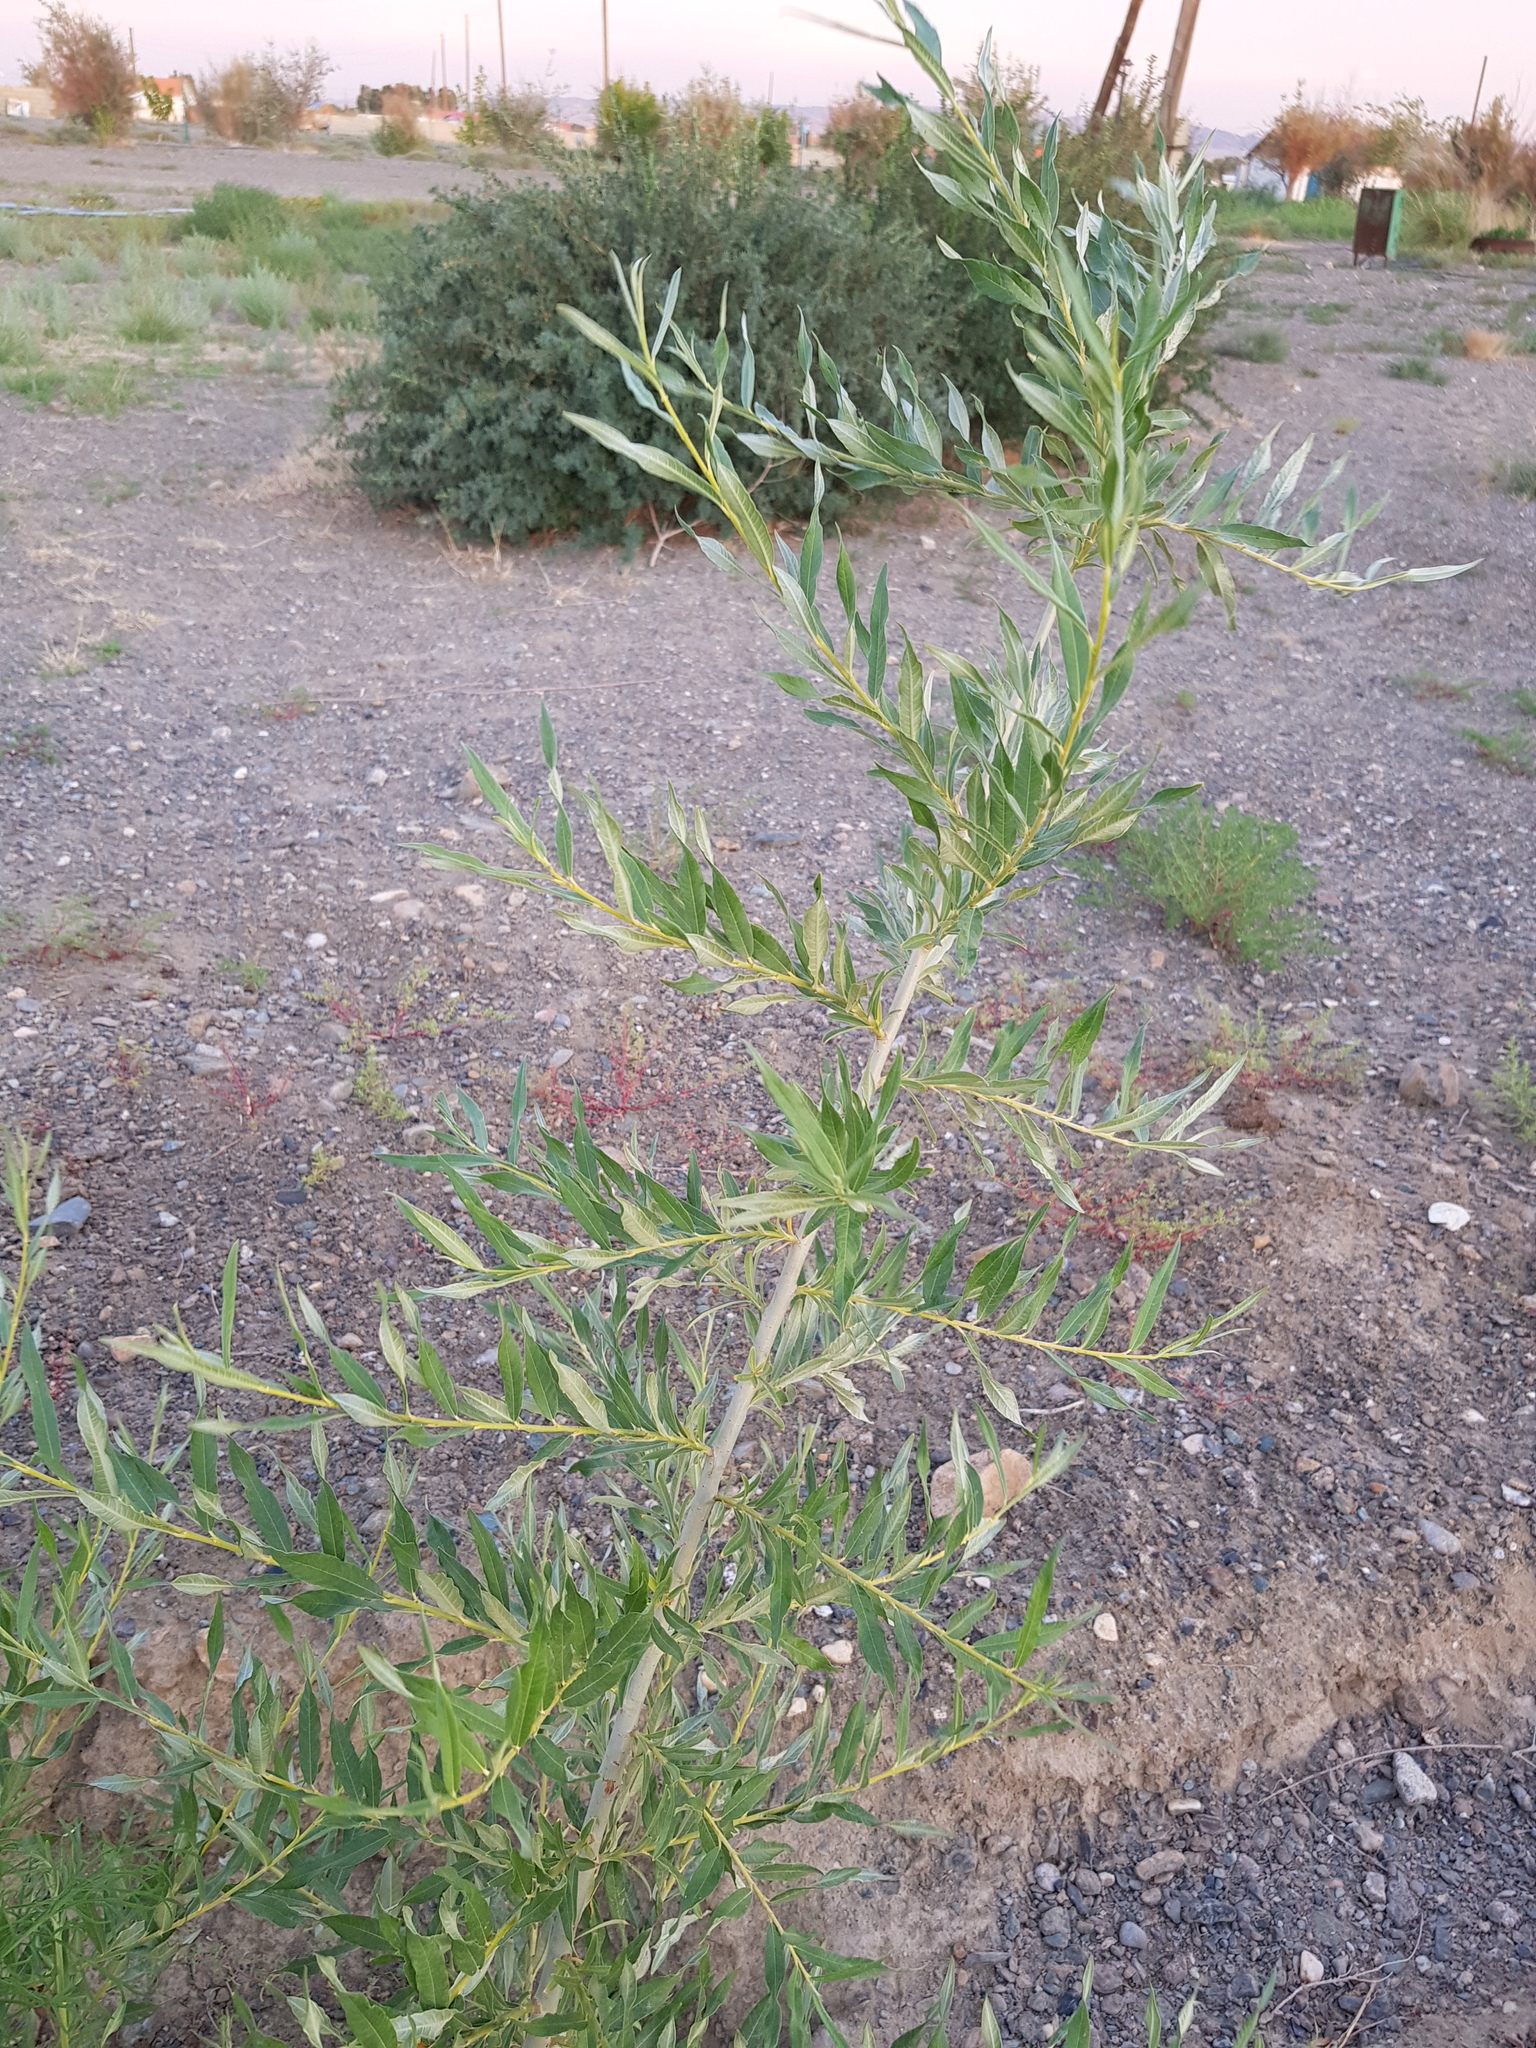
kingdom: Plantae
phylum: Tracheophyta
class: Magnoliopsida
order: Malpighiales
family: Salicaceae
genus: Populus
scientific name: Populus euphratica
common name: Euphrates poplar
